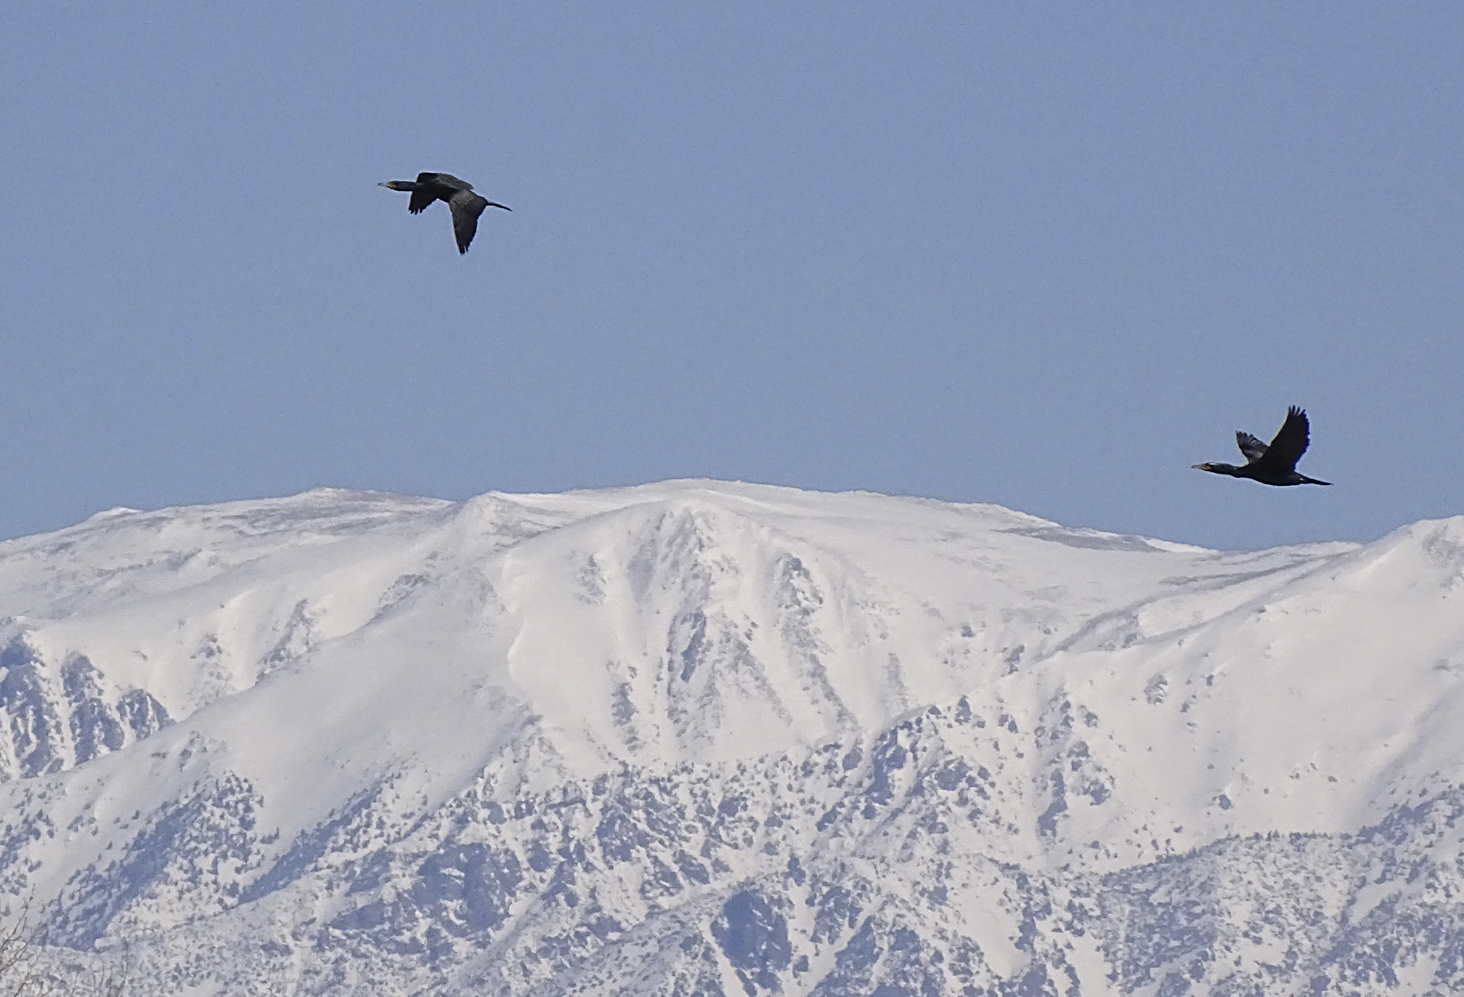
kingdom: Animalia
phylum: Chordata
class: Aves
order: Suliformes
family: Phalacrocoracidae
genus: Phalacrocorax
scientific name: Phalacrocorax auritus
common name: Double-crested cormorant
